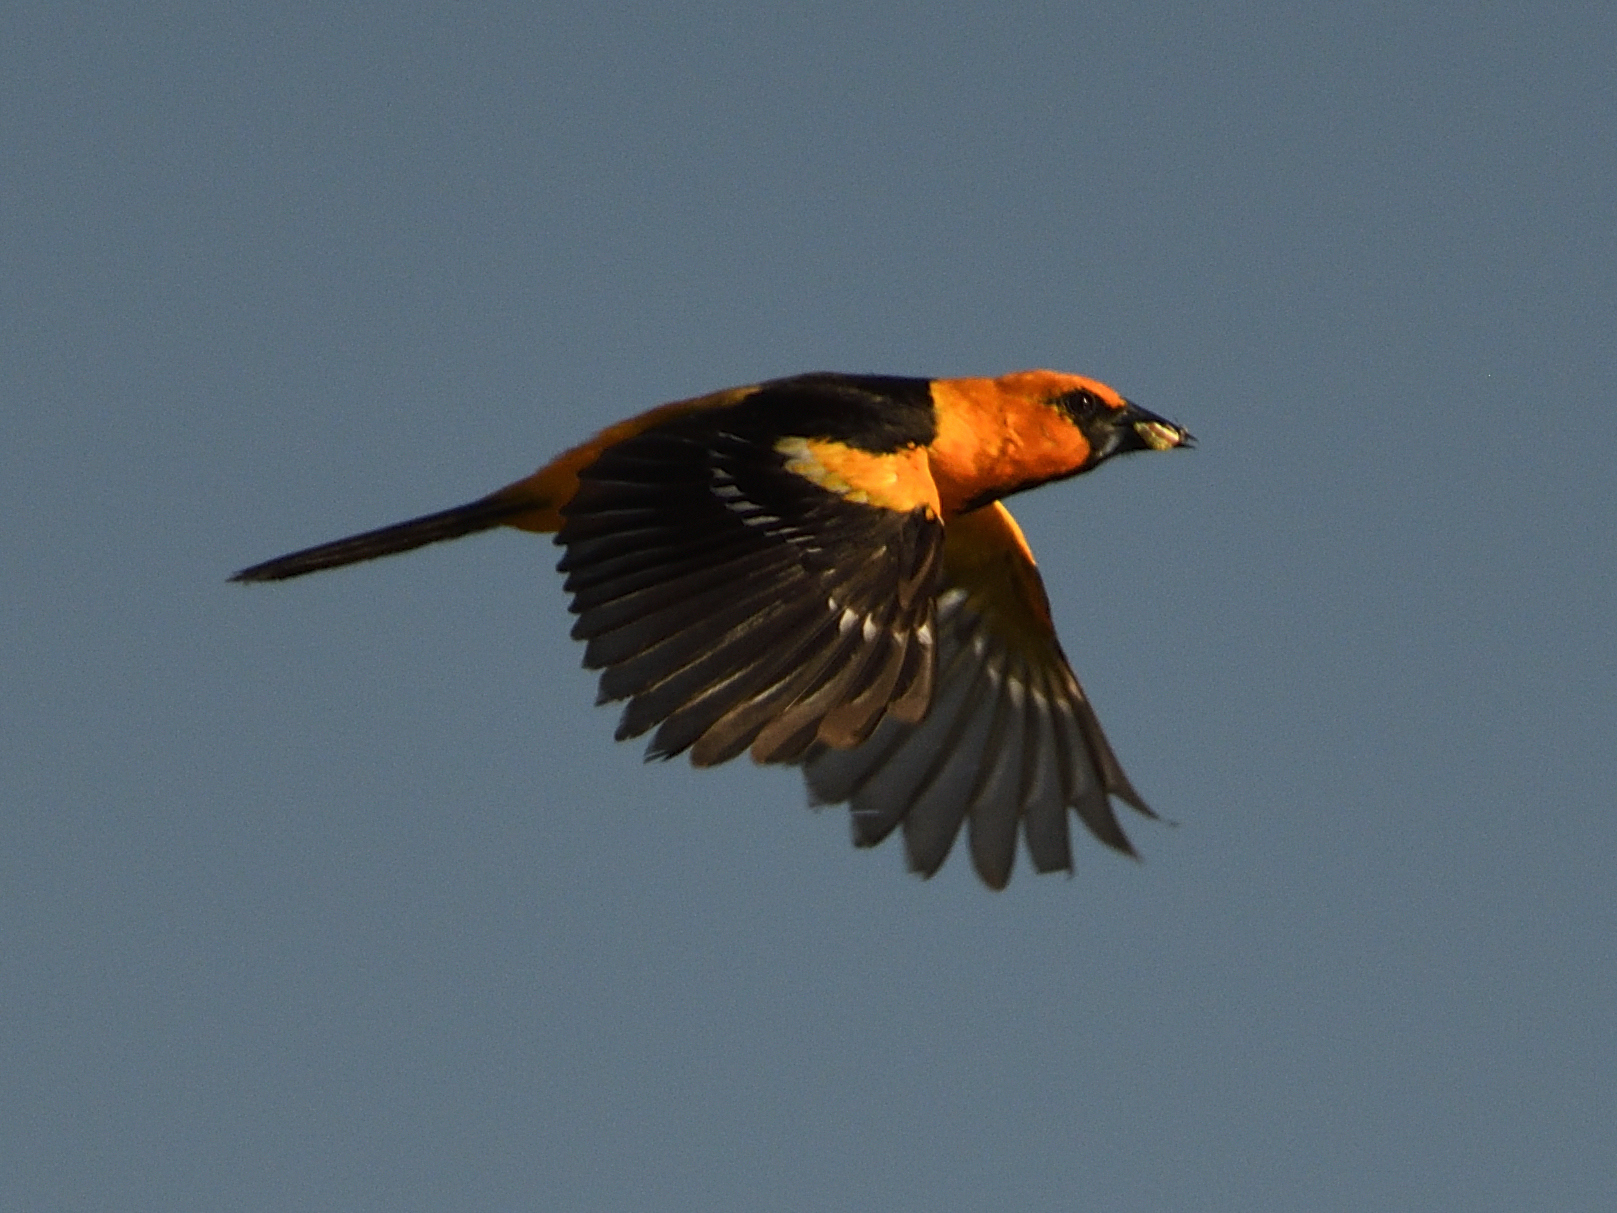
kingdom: Animalia
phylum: Chordata
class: Aves
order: Passeriformes
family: Icteridae
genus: Icterus
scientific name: Icterus gularis
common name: Altamira oriole
